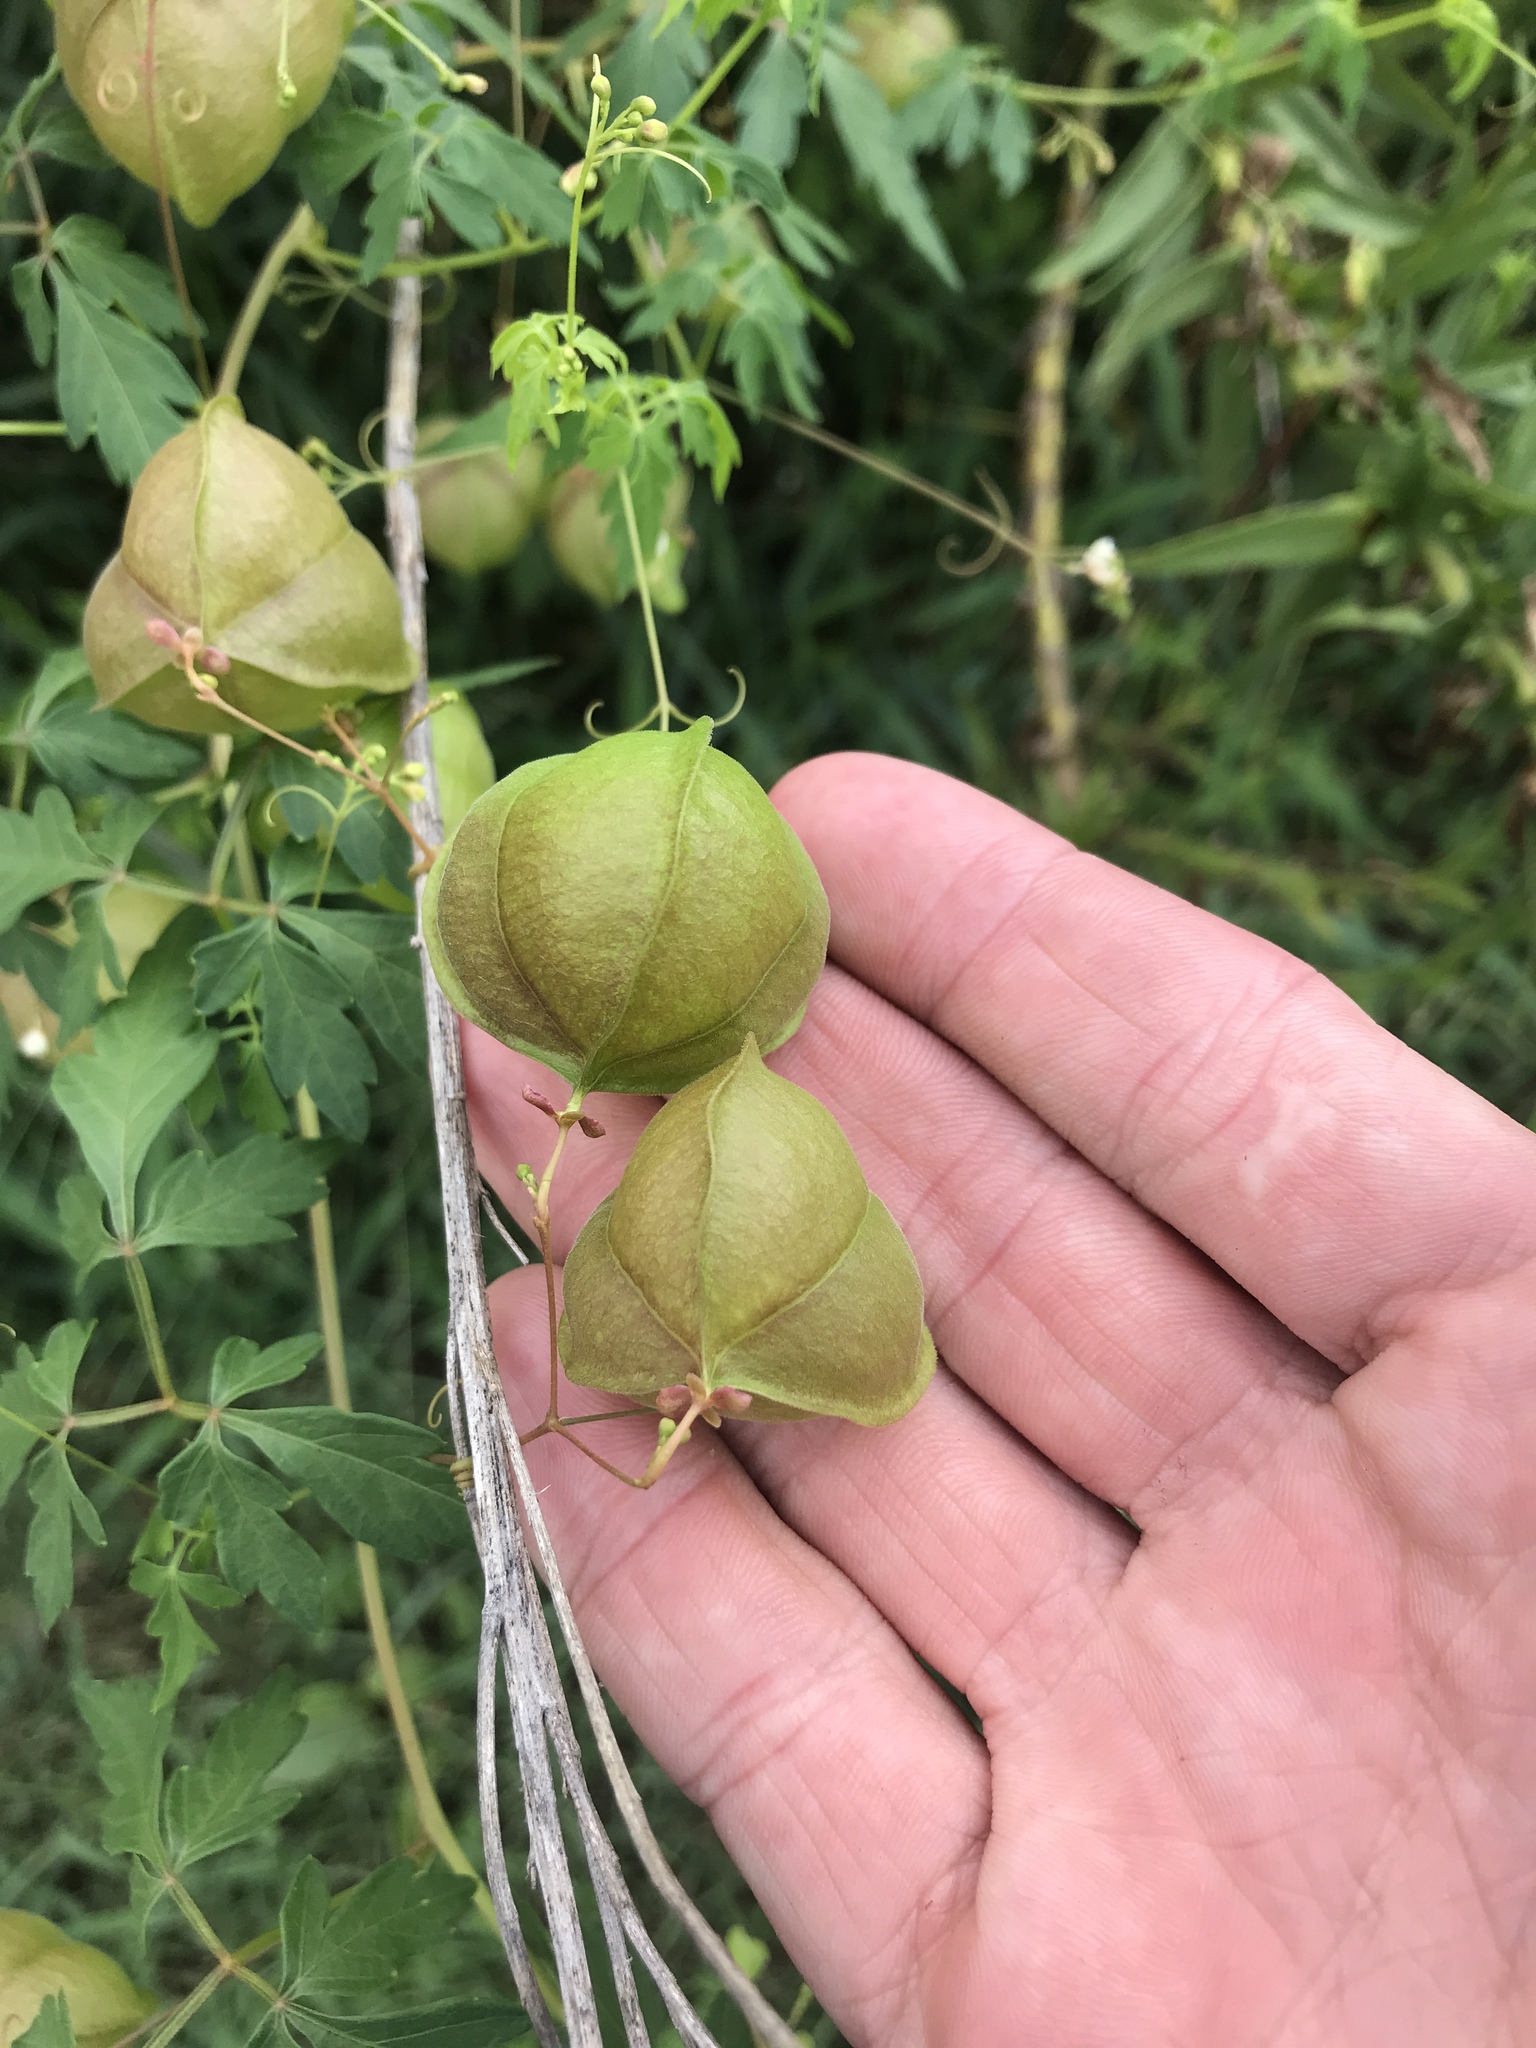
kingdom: Plantae
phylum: Tracheophyta
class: Magnoliopsida
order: Sapindales
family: Sapindaceae
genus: Cardiospermum
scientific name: Cardiospermum halicacabum
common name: Balloon vine
